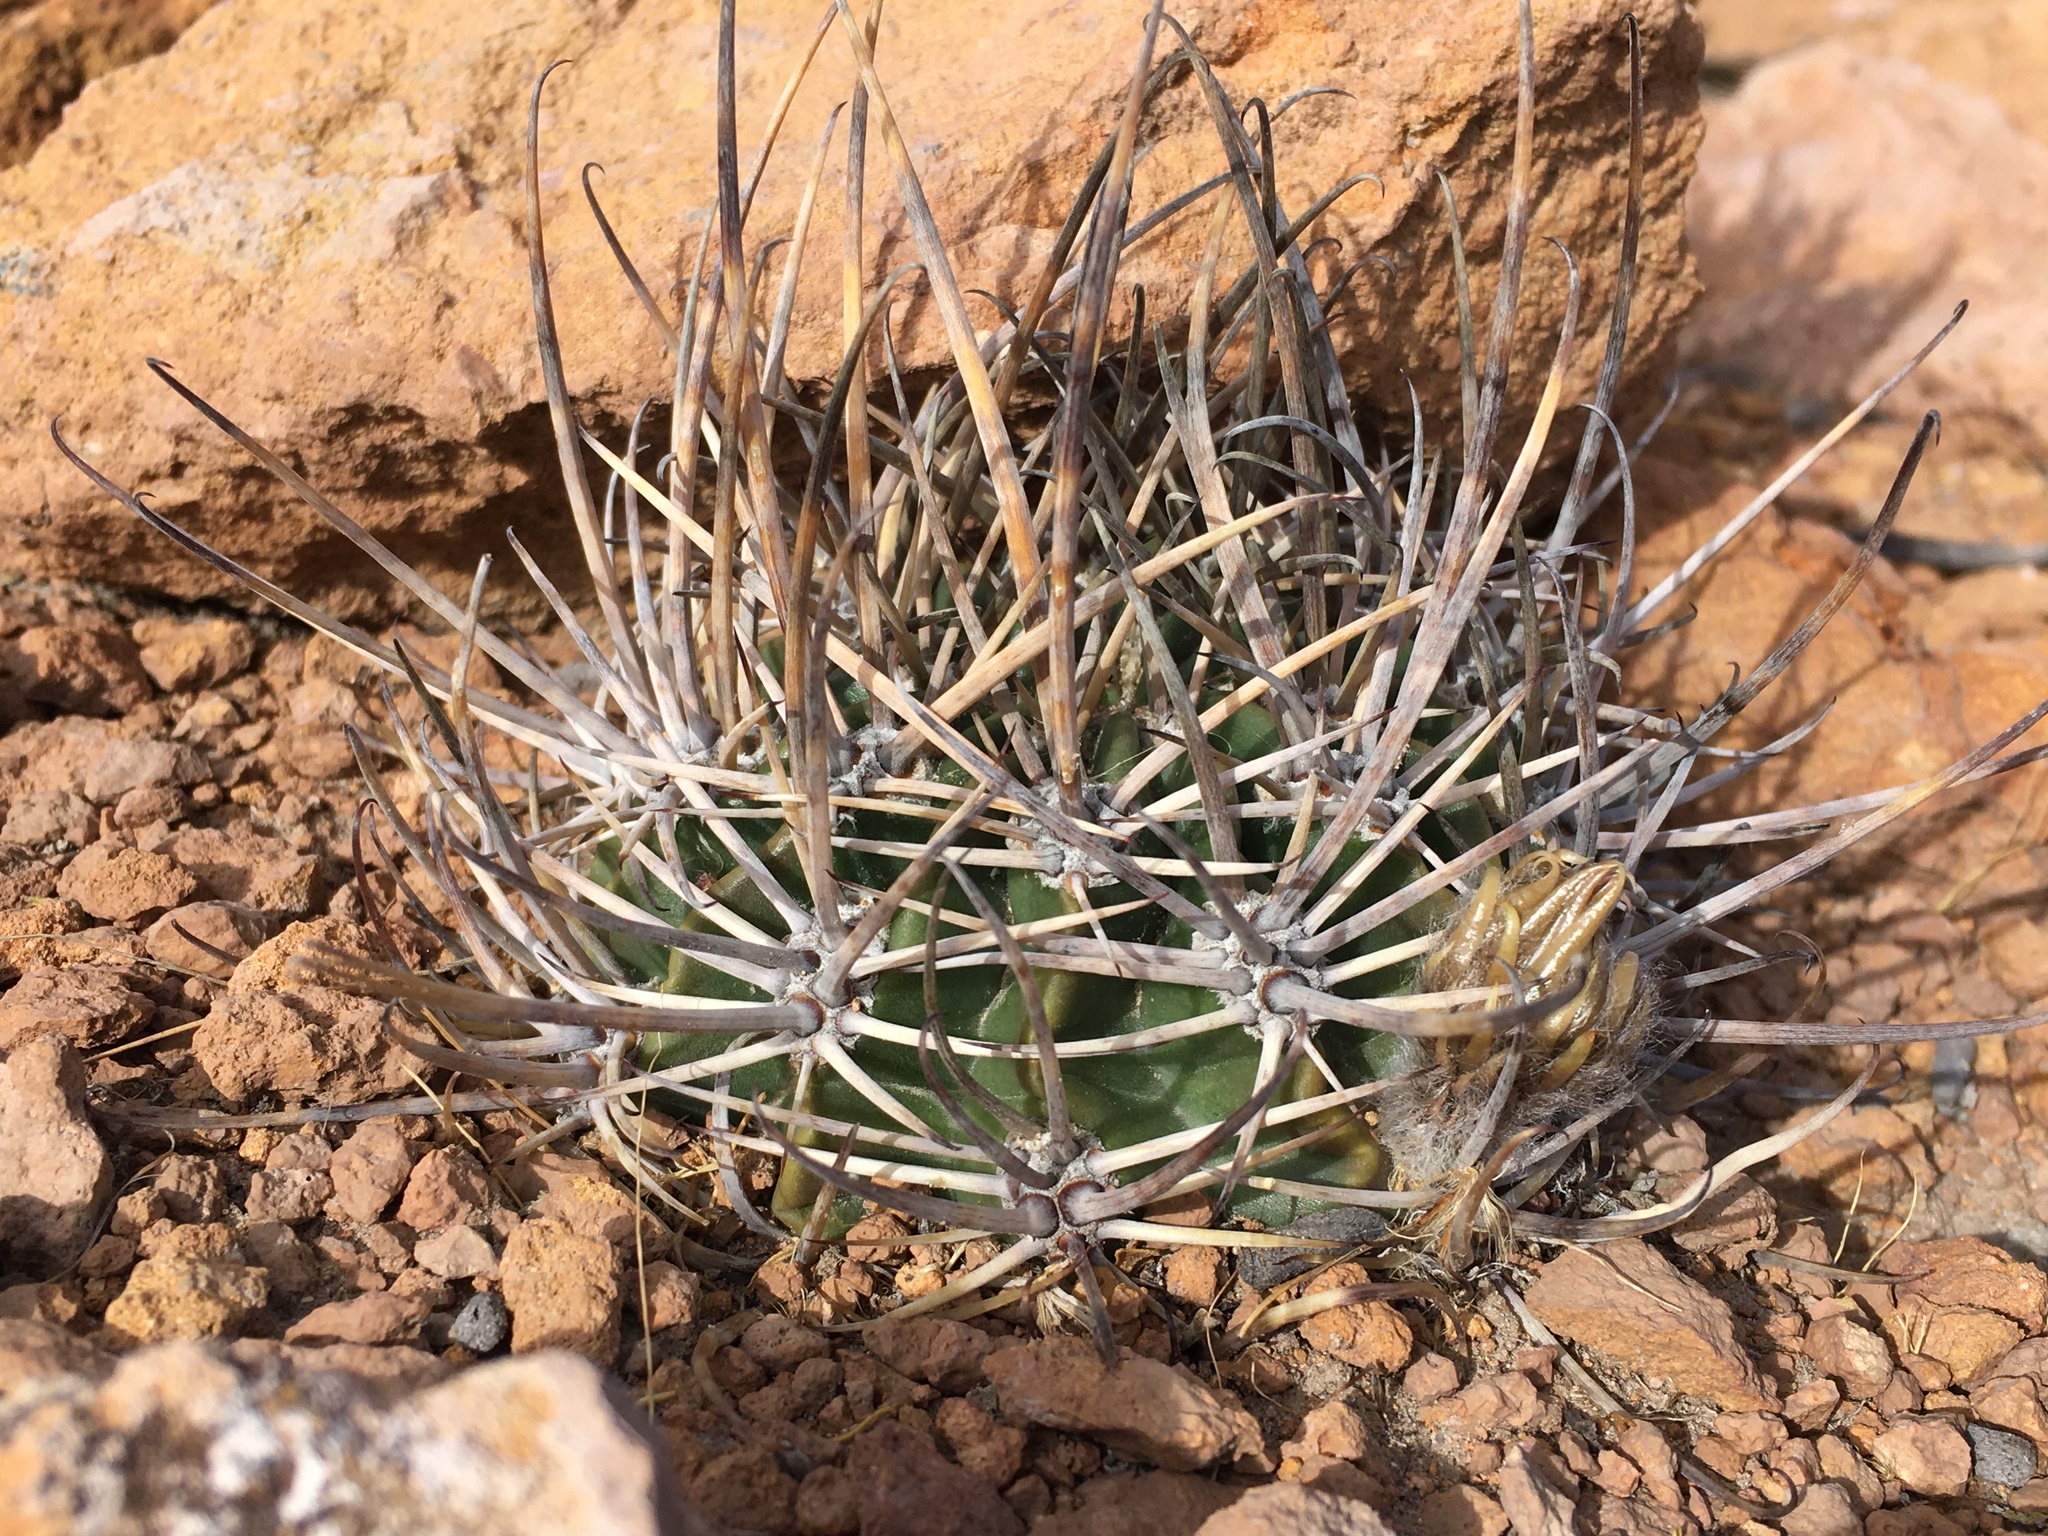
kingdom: Plantae
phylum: Tracheophyta
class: Magnoliopsida
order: Caryophyllales
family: Cactaceae
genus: Lobivia
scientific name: Lobivia ferox
